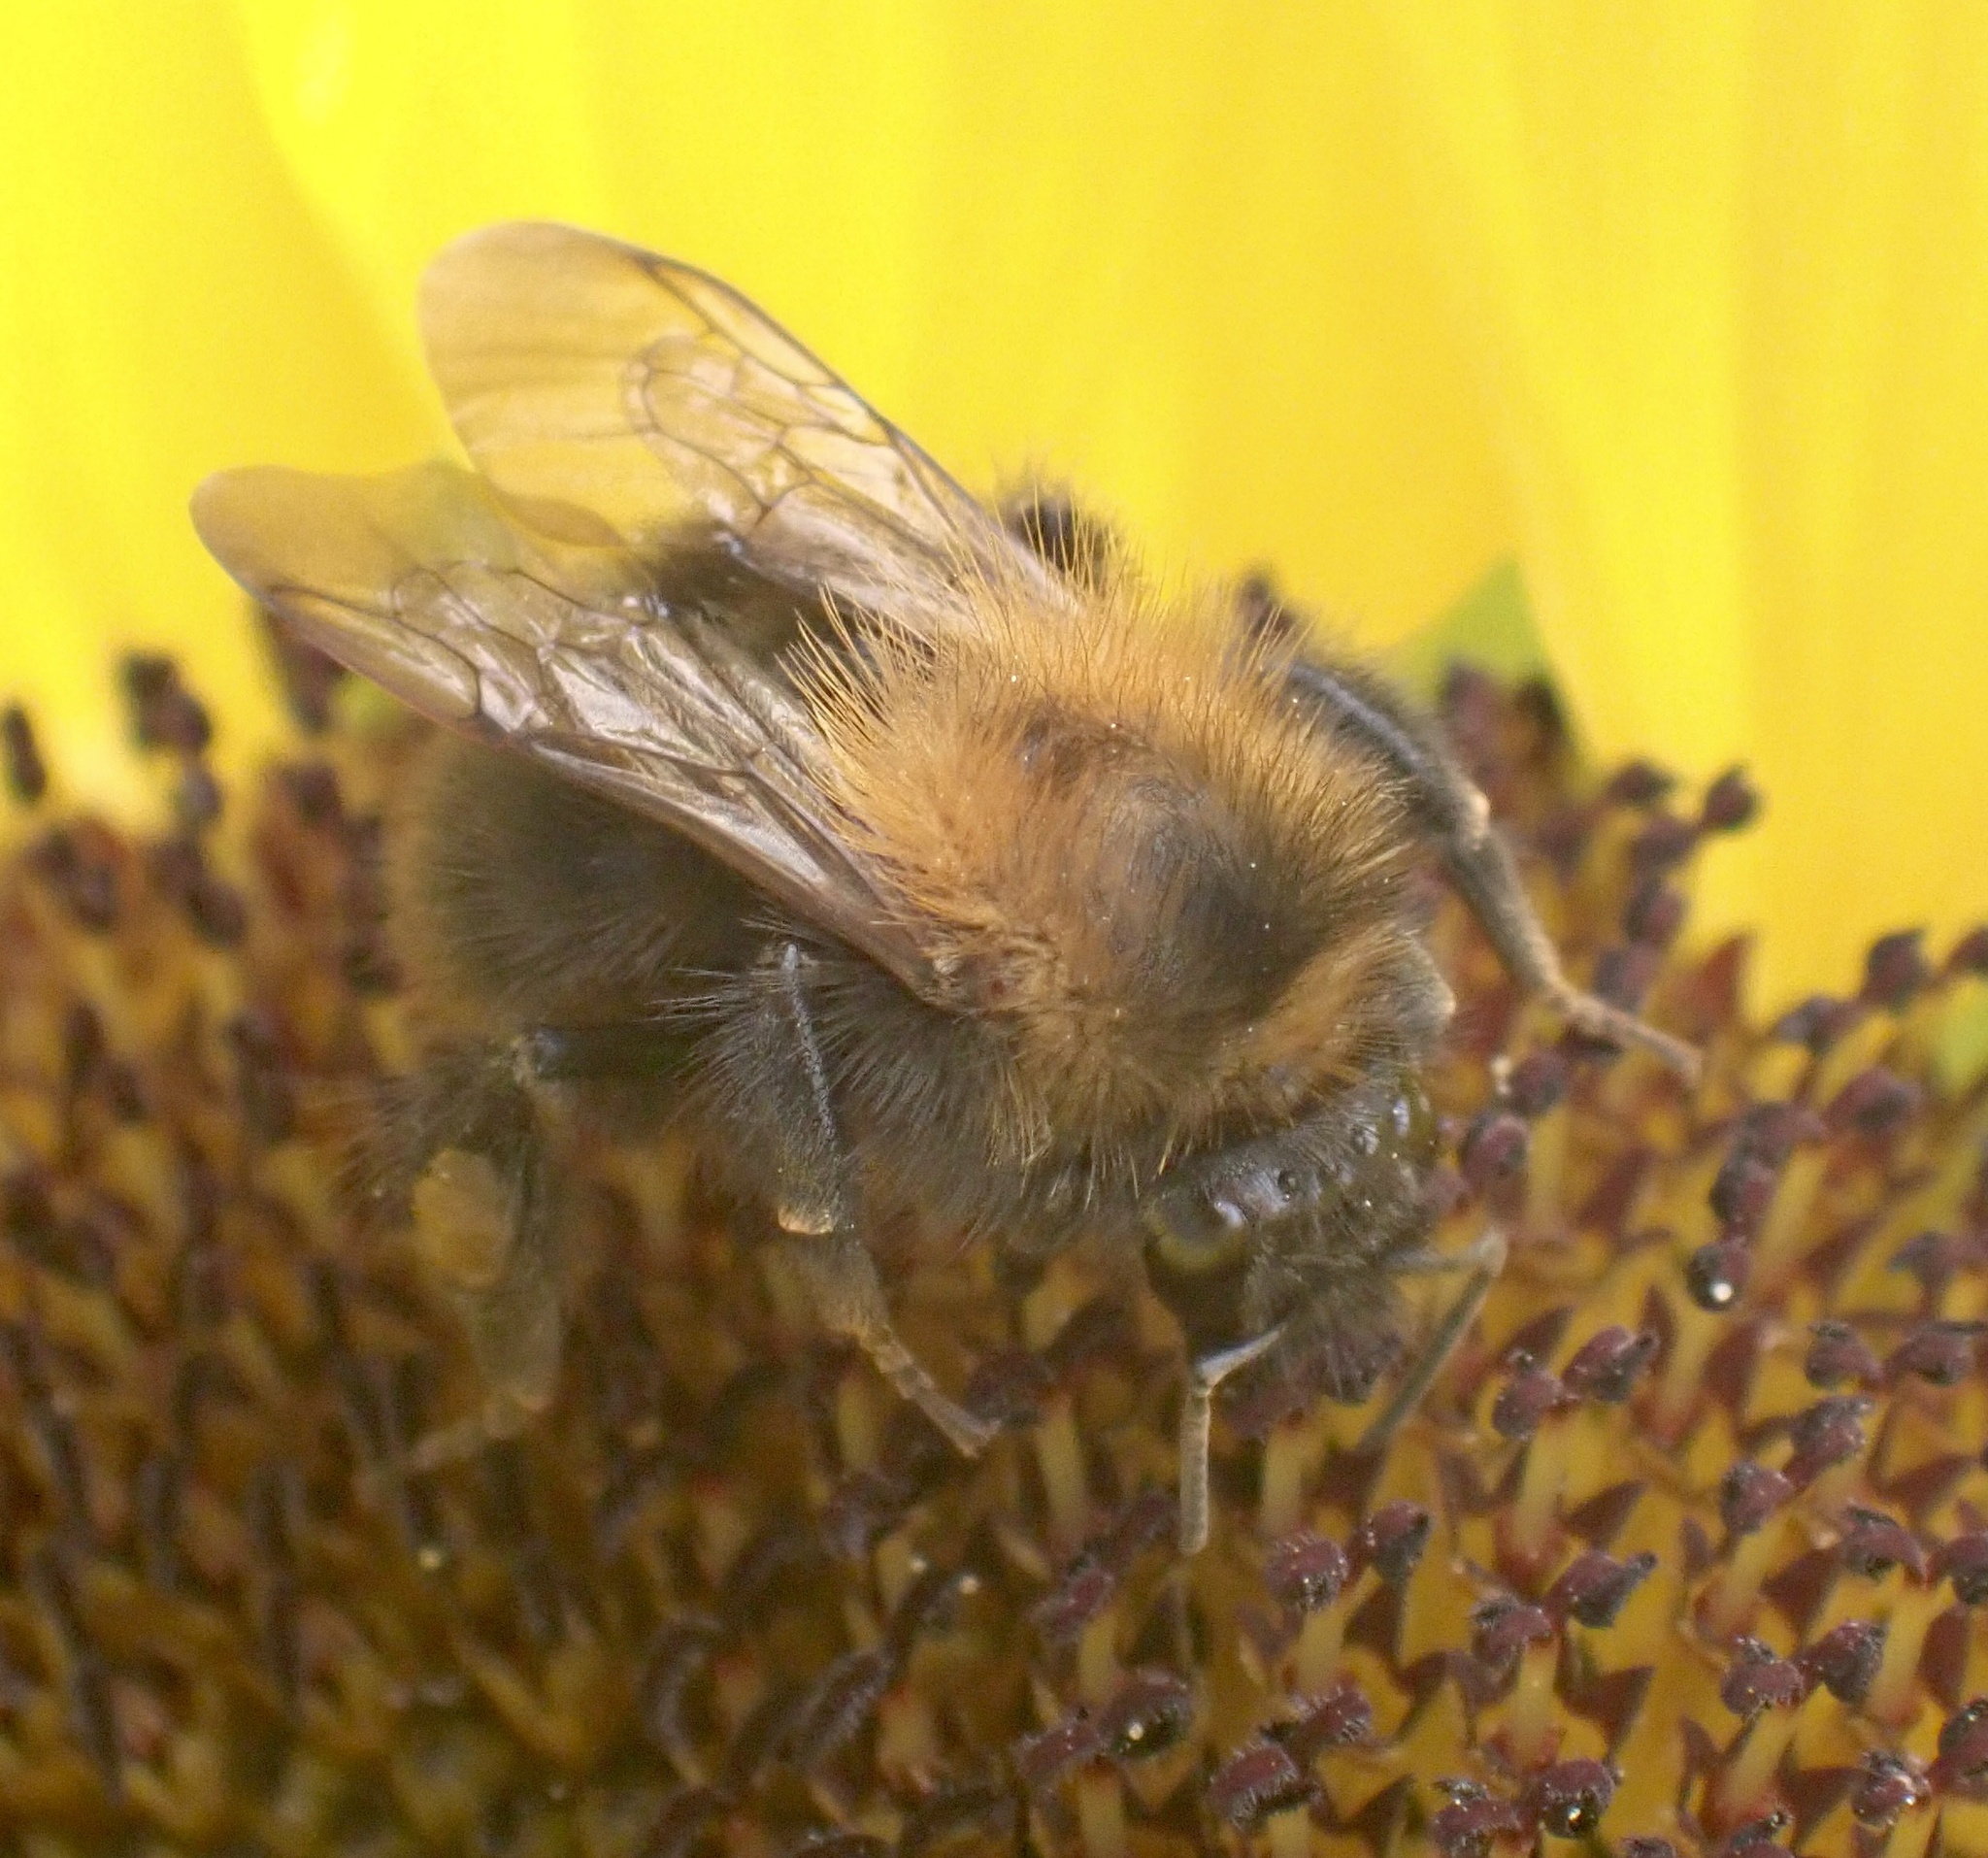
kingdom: Animalia
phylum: Arthropoda
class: Insecta
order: Hymenoptera
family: Apidae
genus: Bombus
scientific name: Bombus pascuorum
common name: Common carder bee
